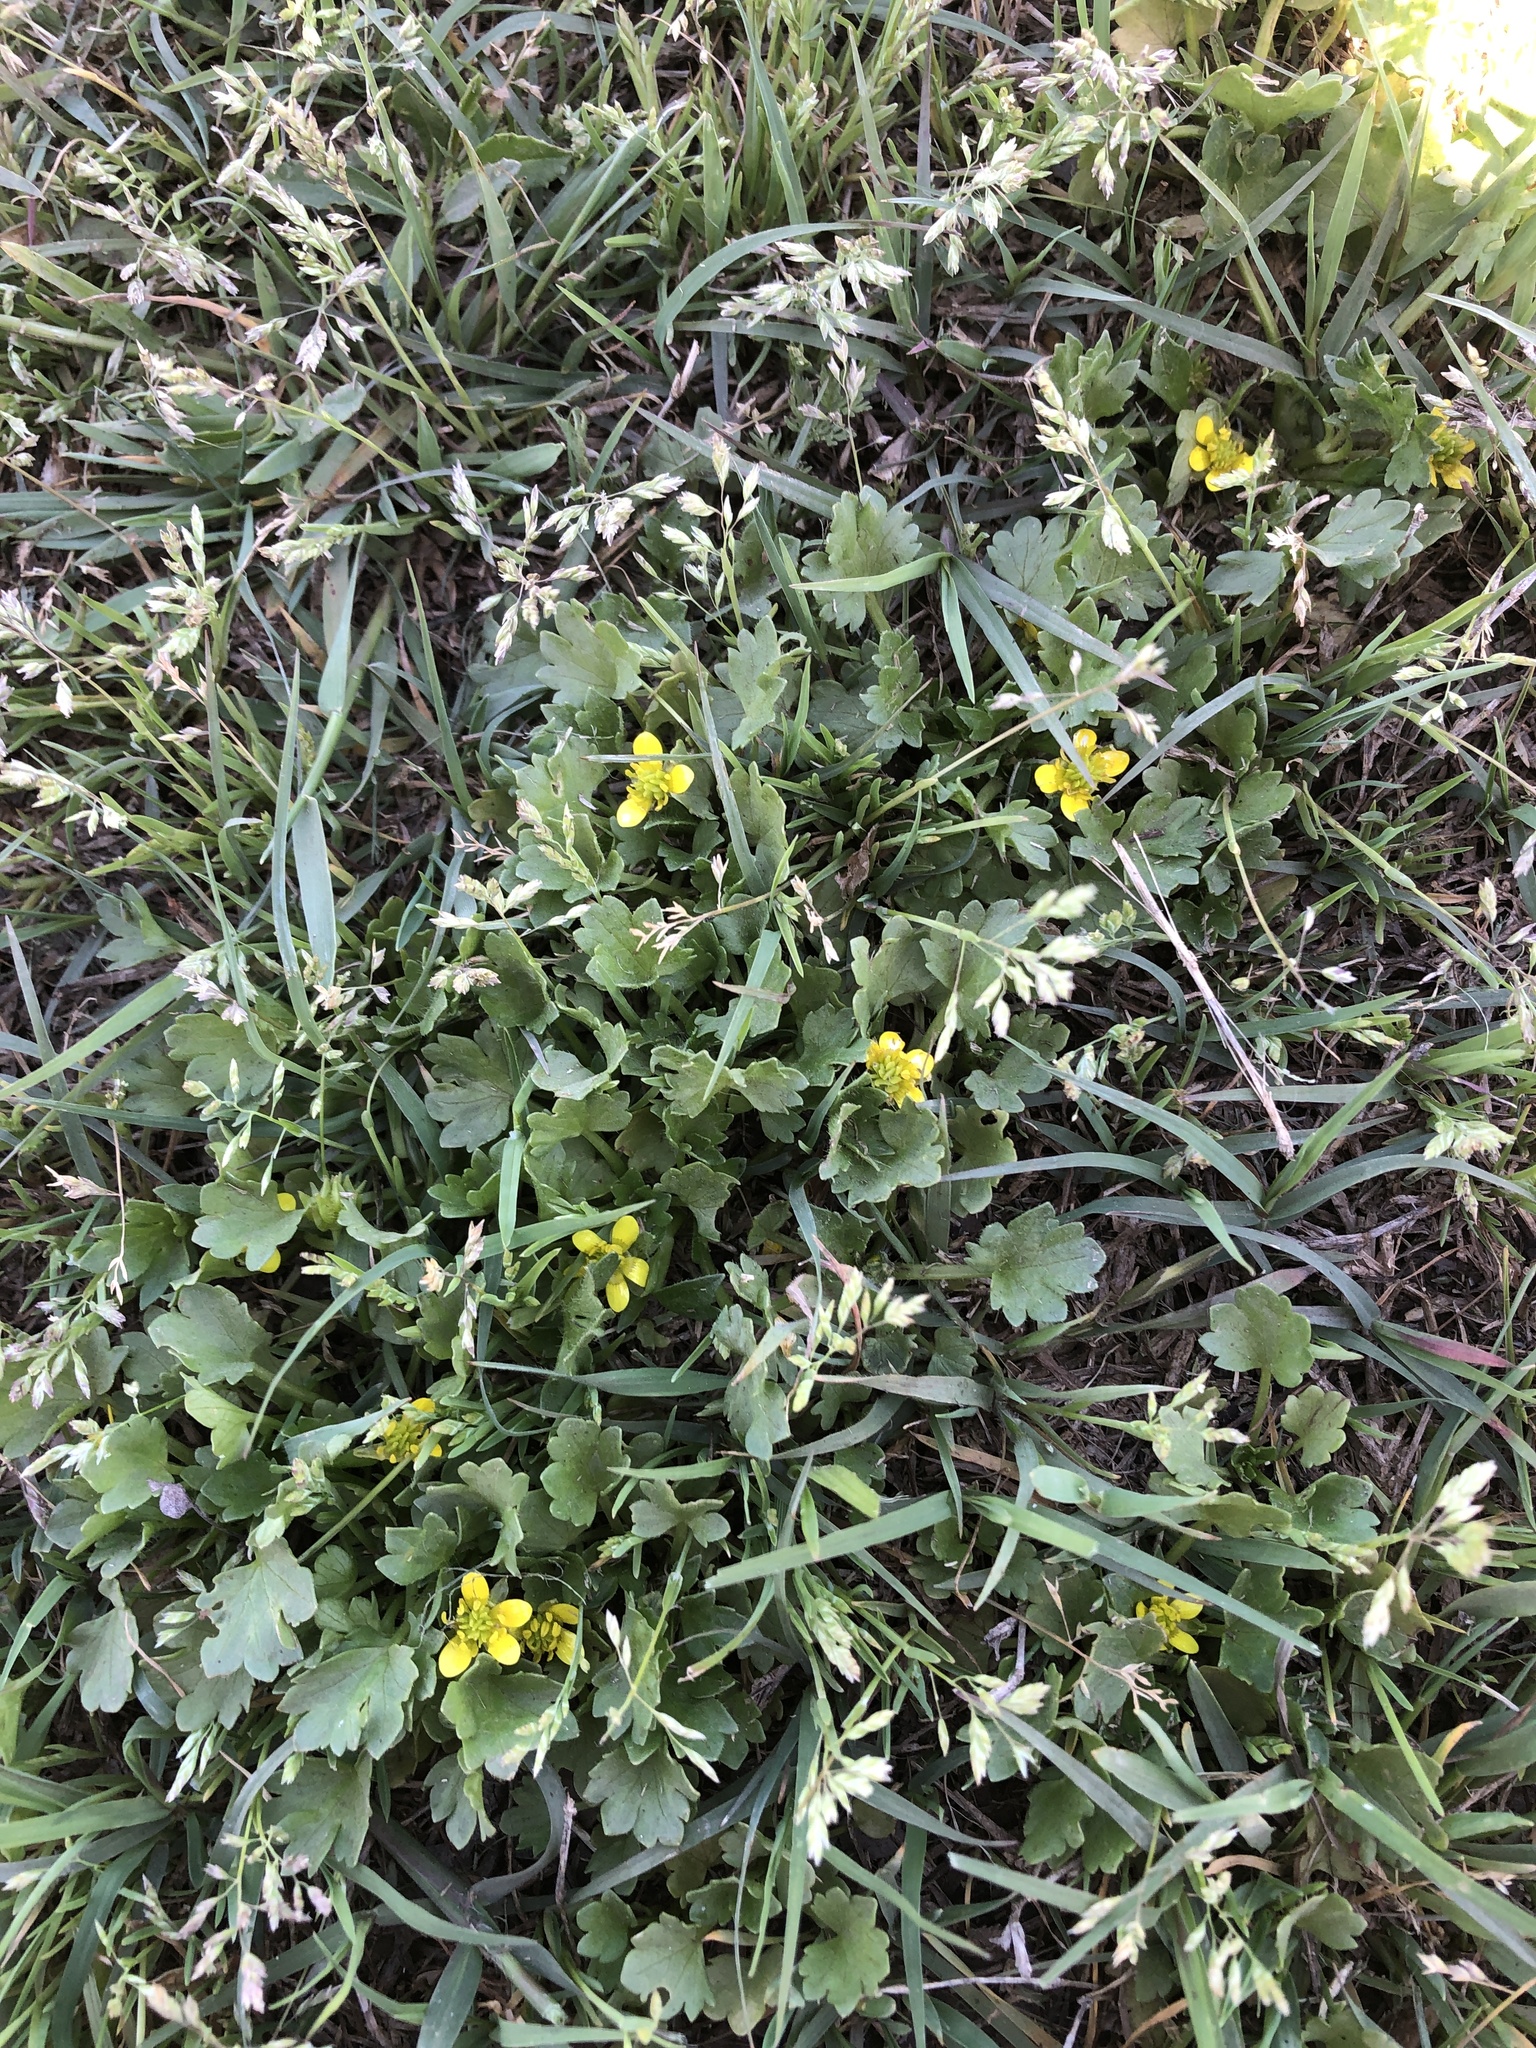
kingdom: Plantae
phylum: Tracheophyta
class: Magnoliopsida
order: Ranunculales
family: Ranunculaceae
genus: Ranunculus
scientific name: Ranunculus muricatus
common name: Rough-fruited buttercup
